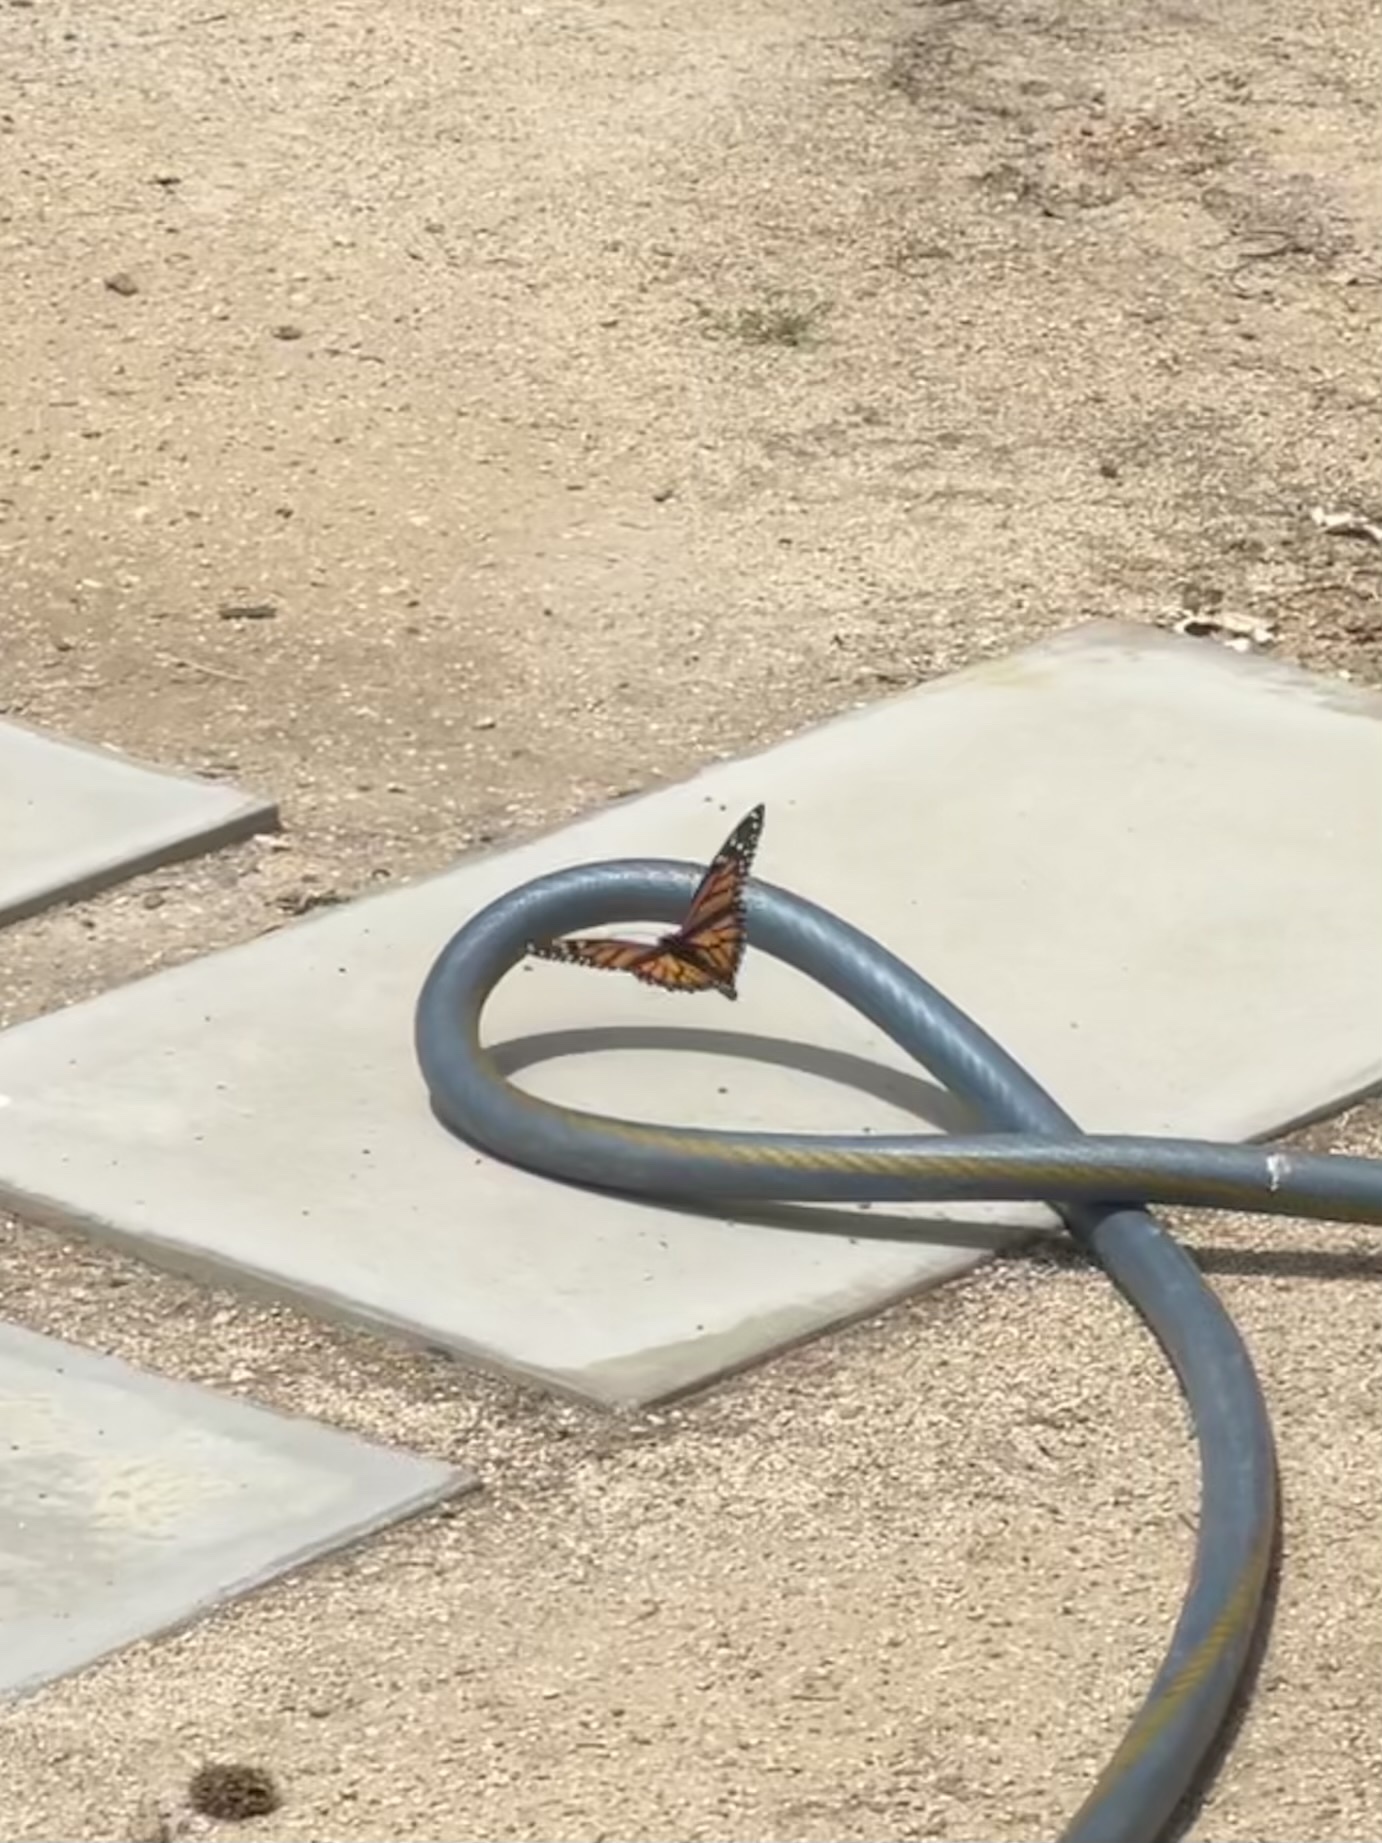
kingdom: Animalia
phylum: Arthropoda
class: Insecta
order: Lepidoptera
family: Nymphalidae
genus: Danaus
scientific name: Danaus plexippus
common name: Monarch
